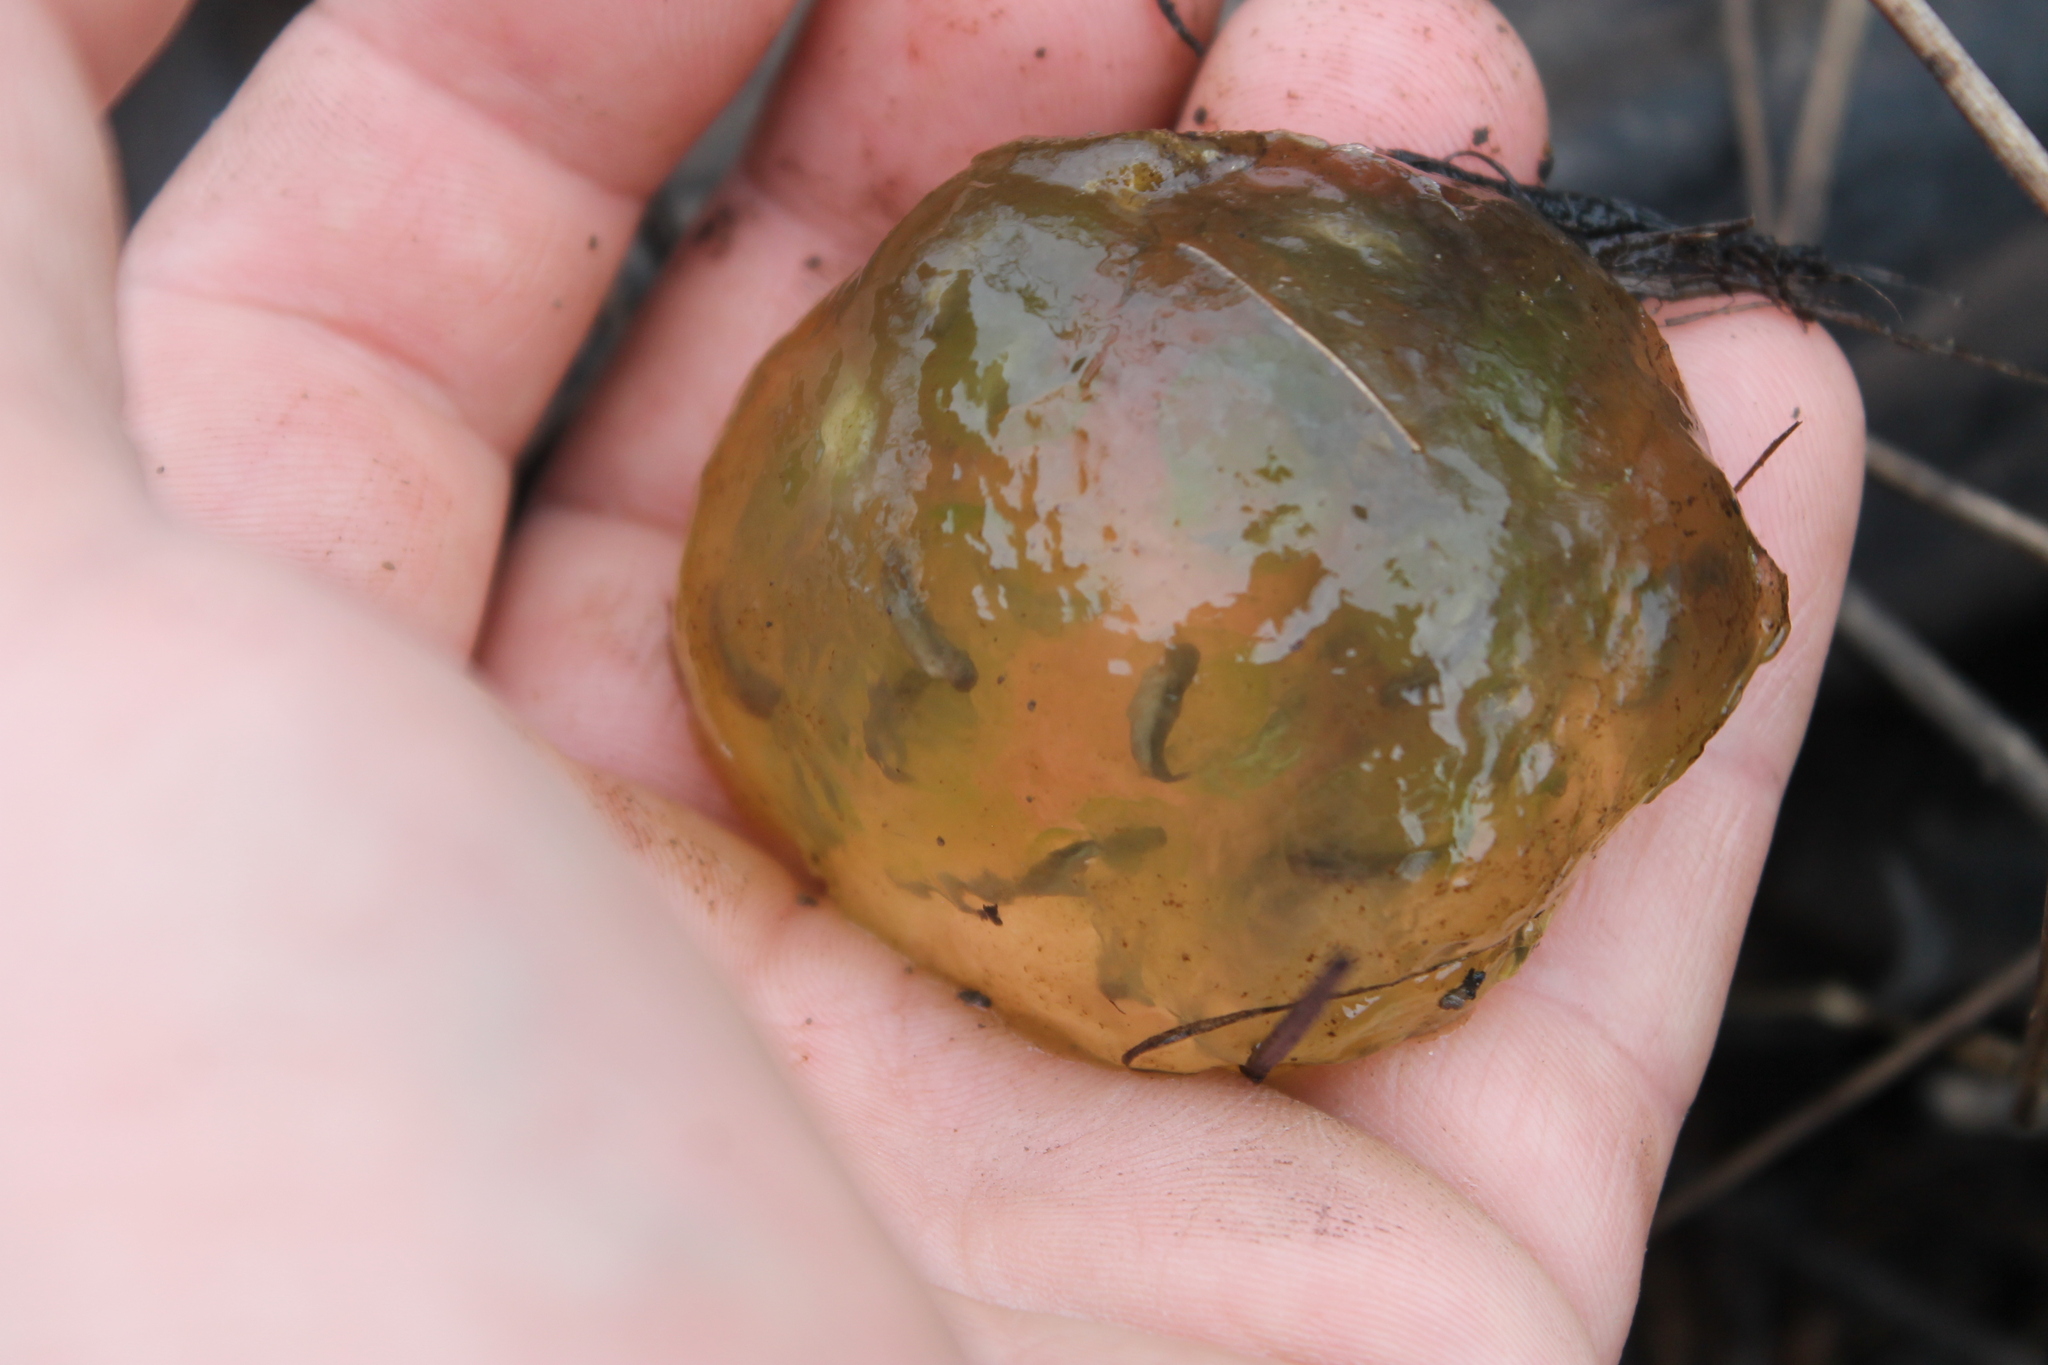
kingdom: Animalia
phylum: Chordata
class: Amphibia
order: Caudata
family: Ambystomatidae
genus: Ambystoma
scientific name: Ambystoma maculatum
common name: Spotted salamander
